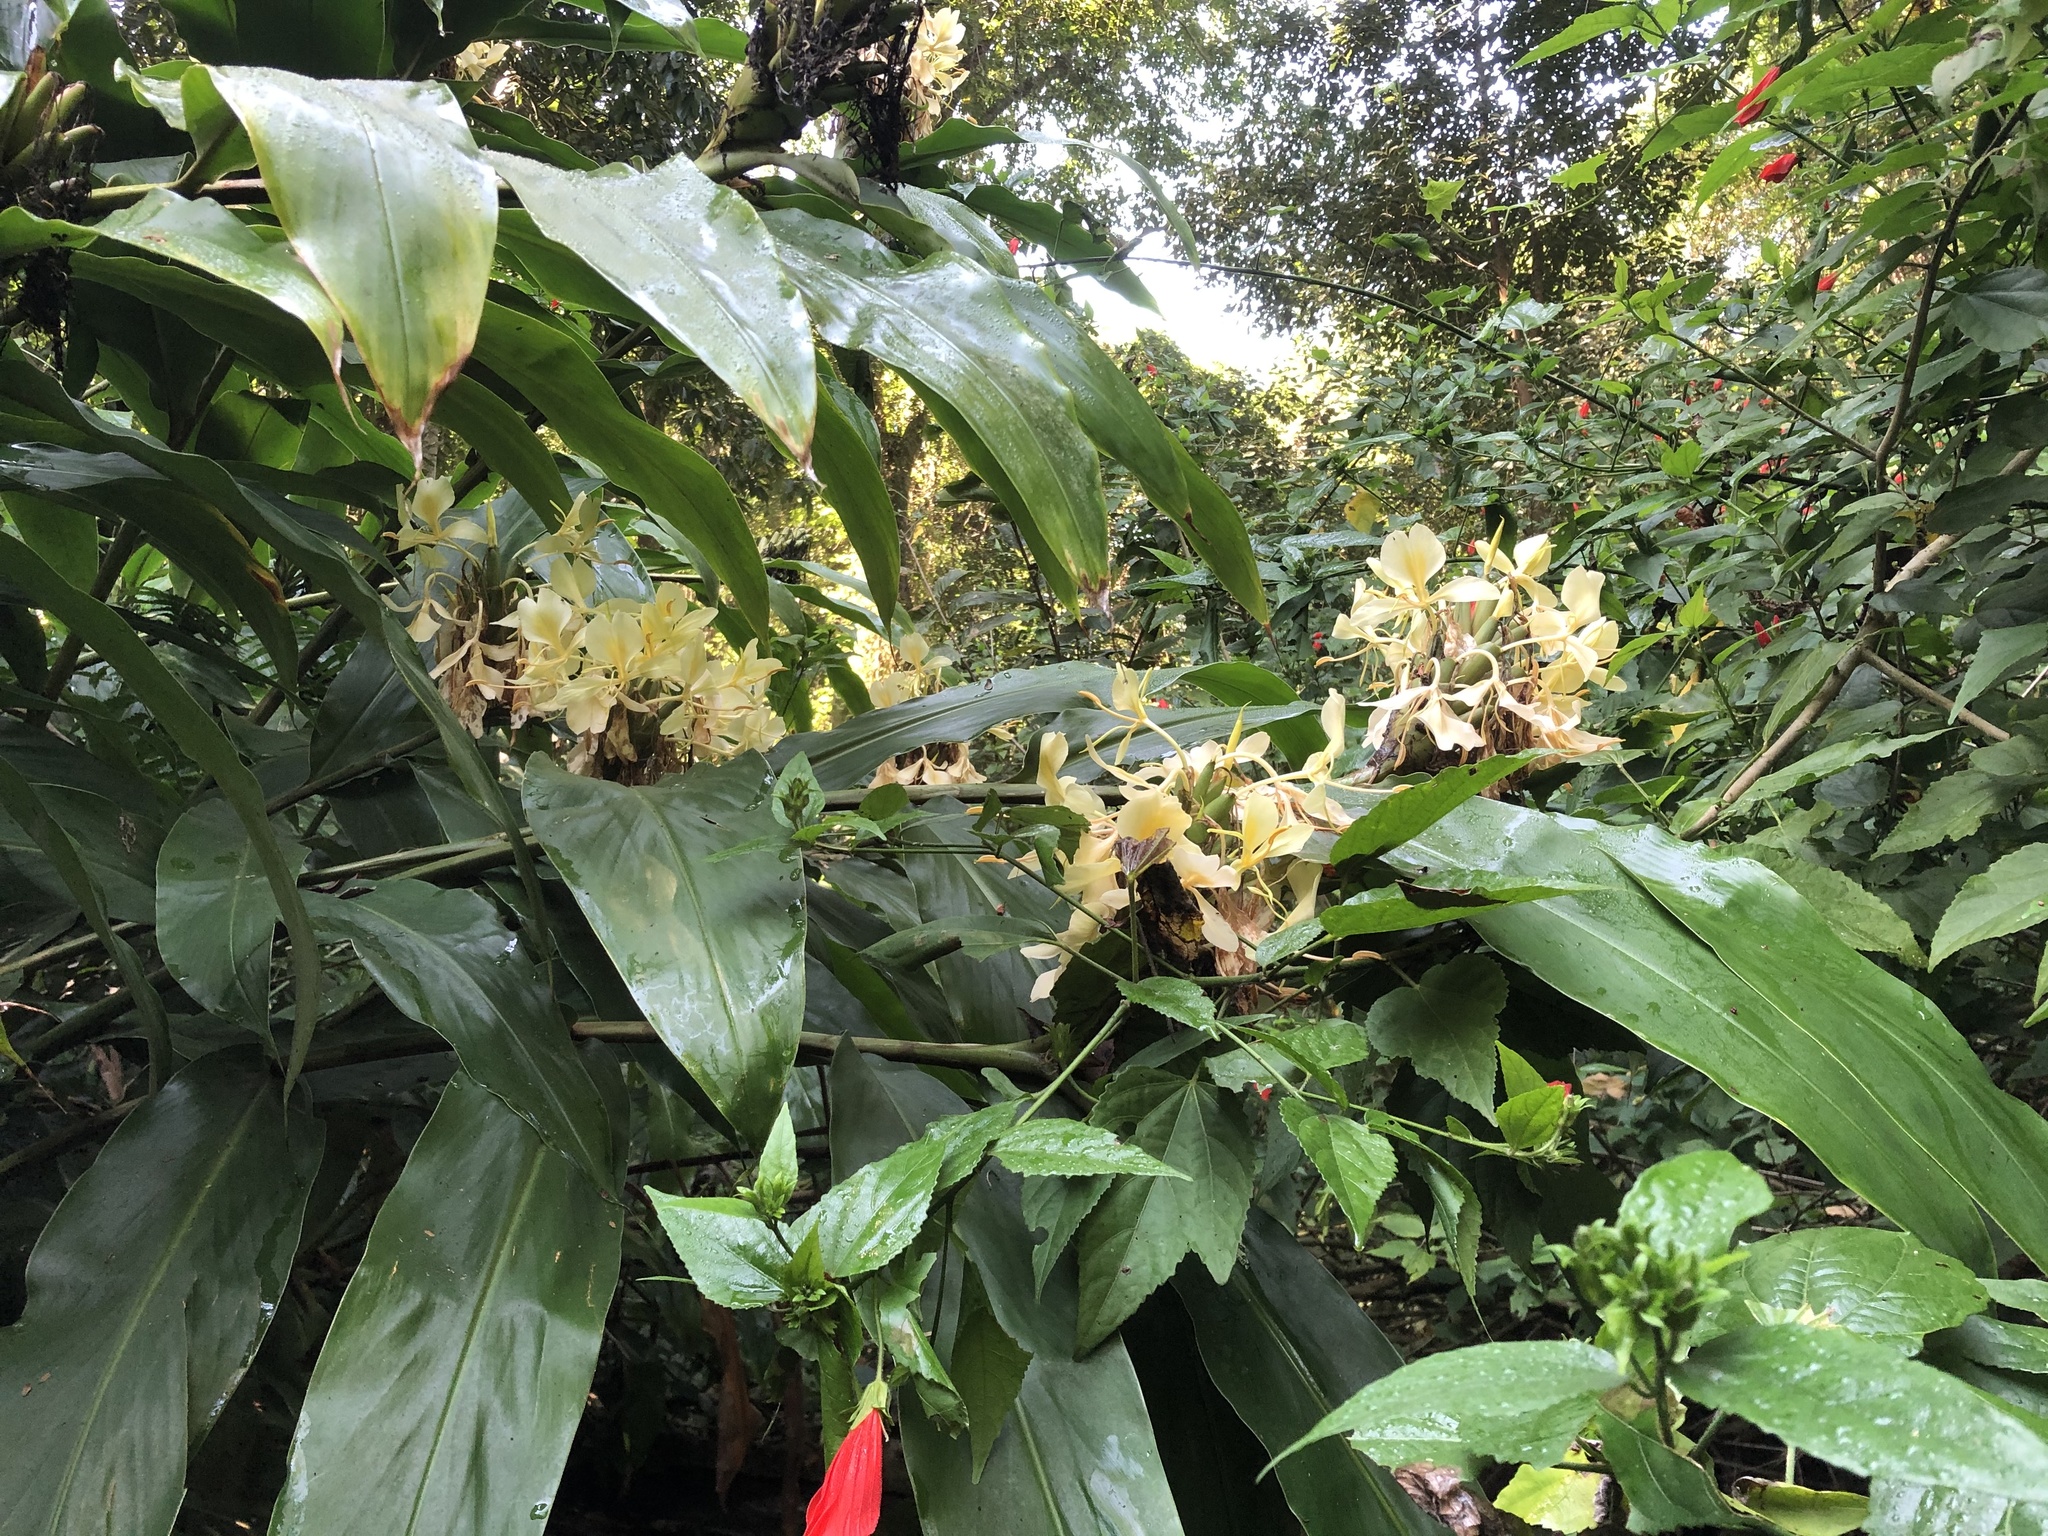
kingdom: Plantae
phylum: Tracheophyta
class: Liliopsida
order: Zingiberales
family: Zingiberaceae
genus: Hedychium
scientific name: Hedychium flavescens
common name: Yellow ginger
